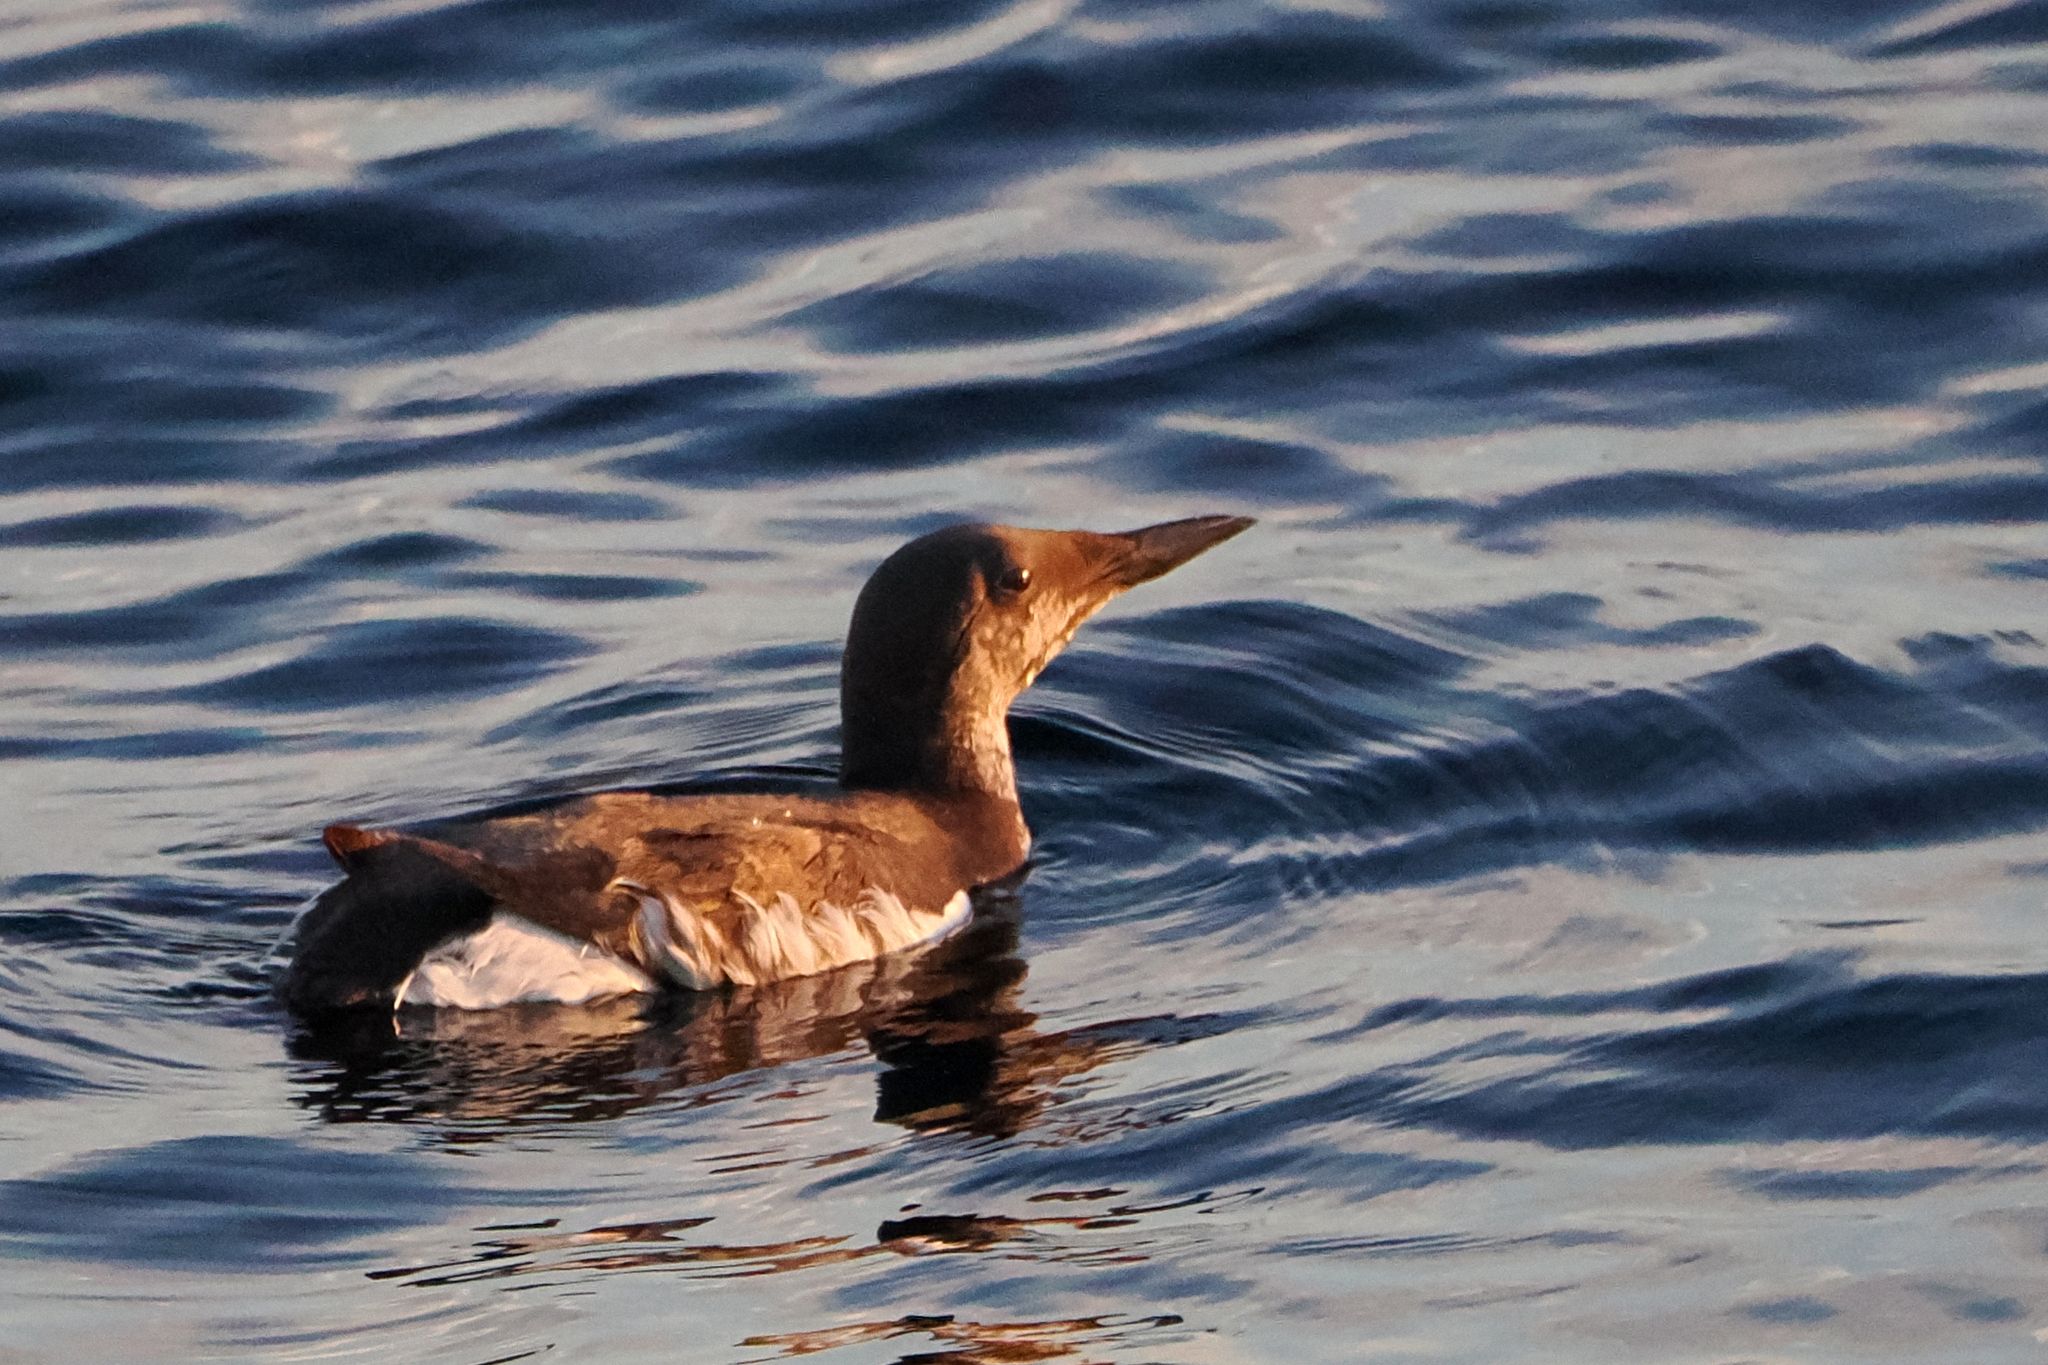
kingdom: Animalia
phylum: Chordata
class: Aves
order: Charadriiformes
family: Alcidae
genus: Uria
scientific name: Uria aalge
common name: Common murre
